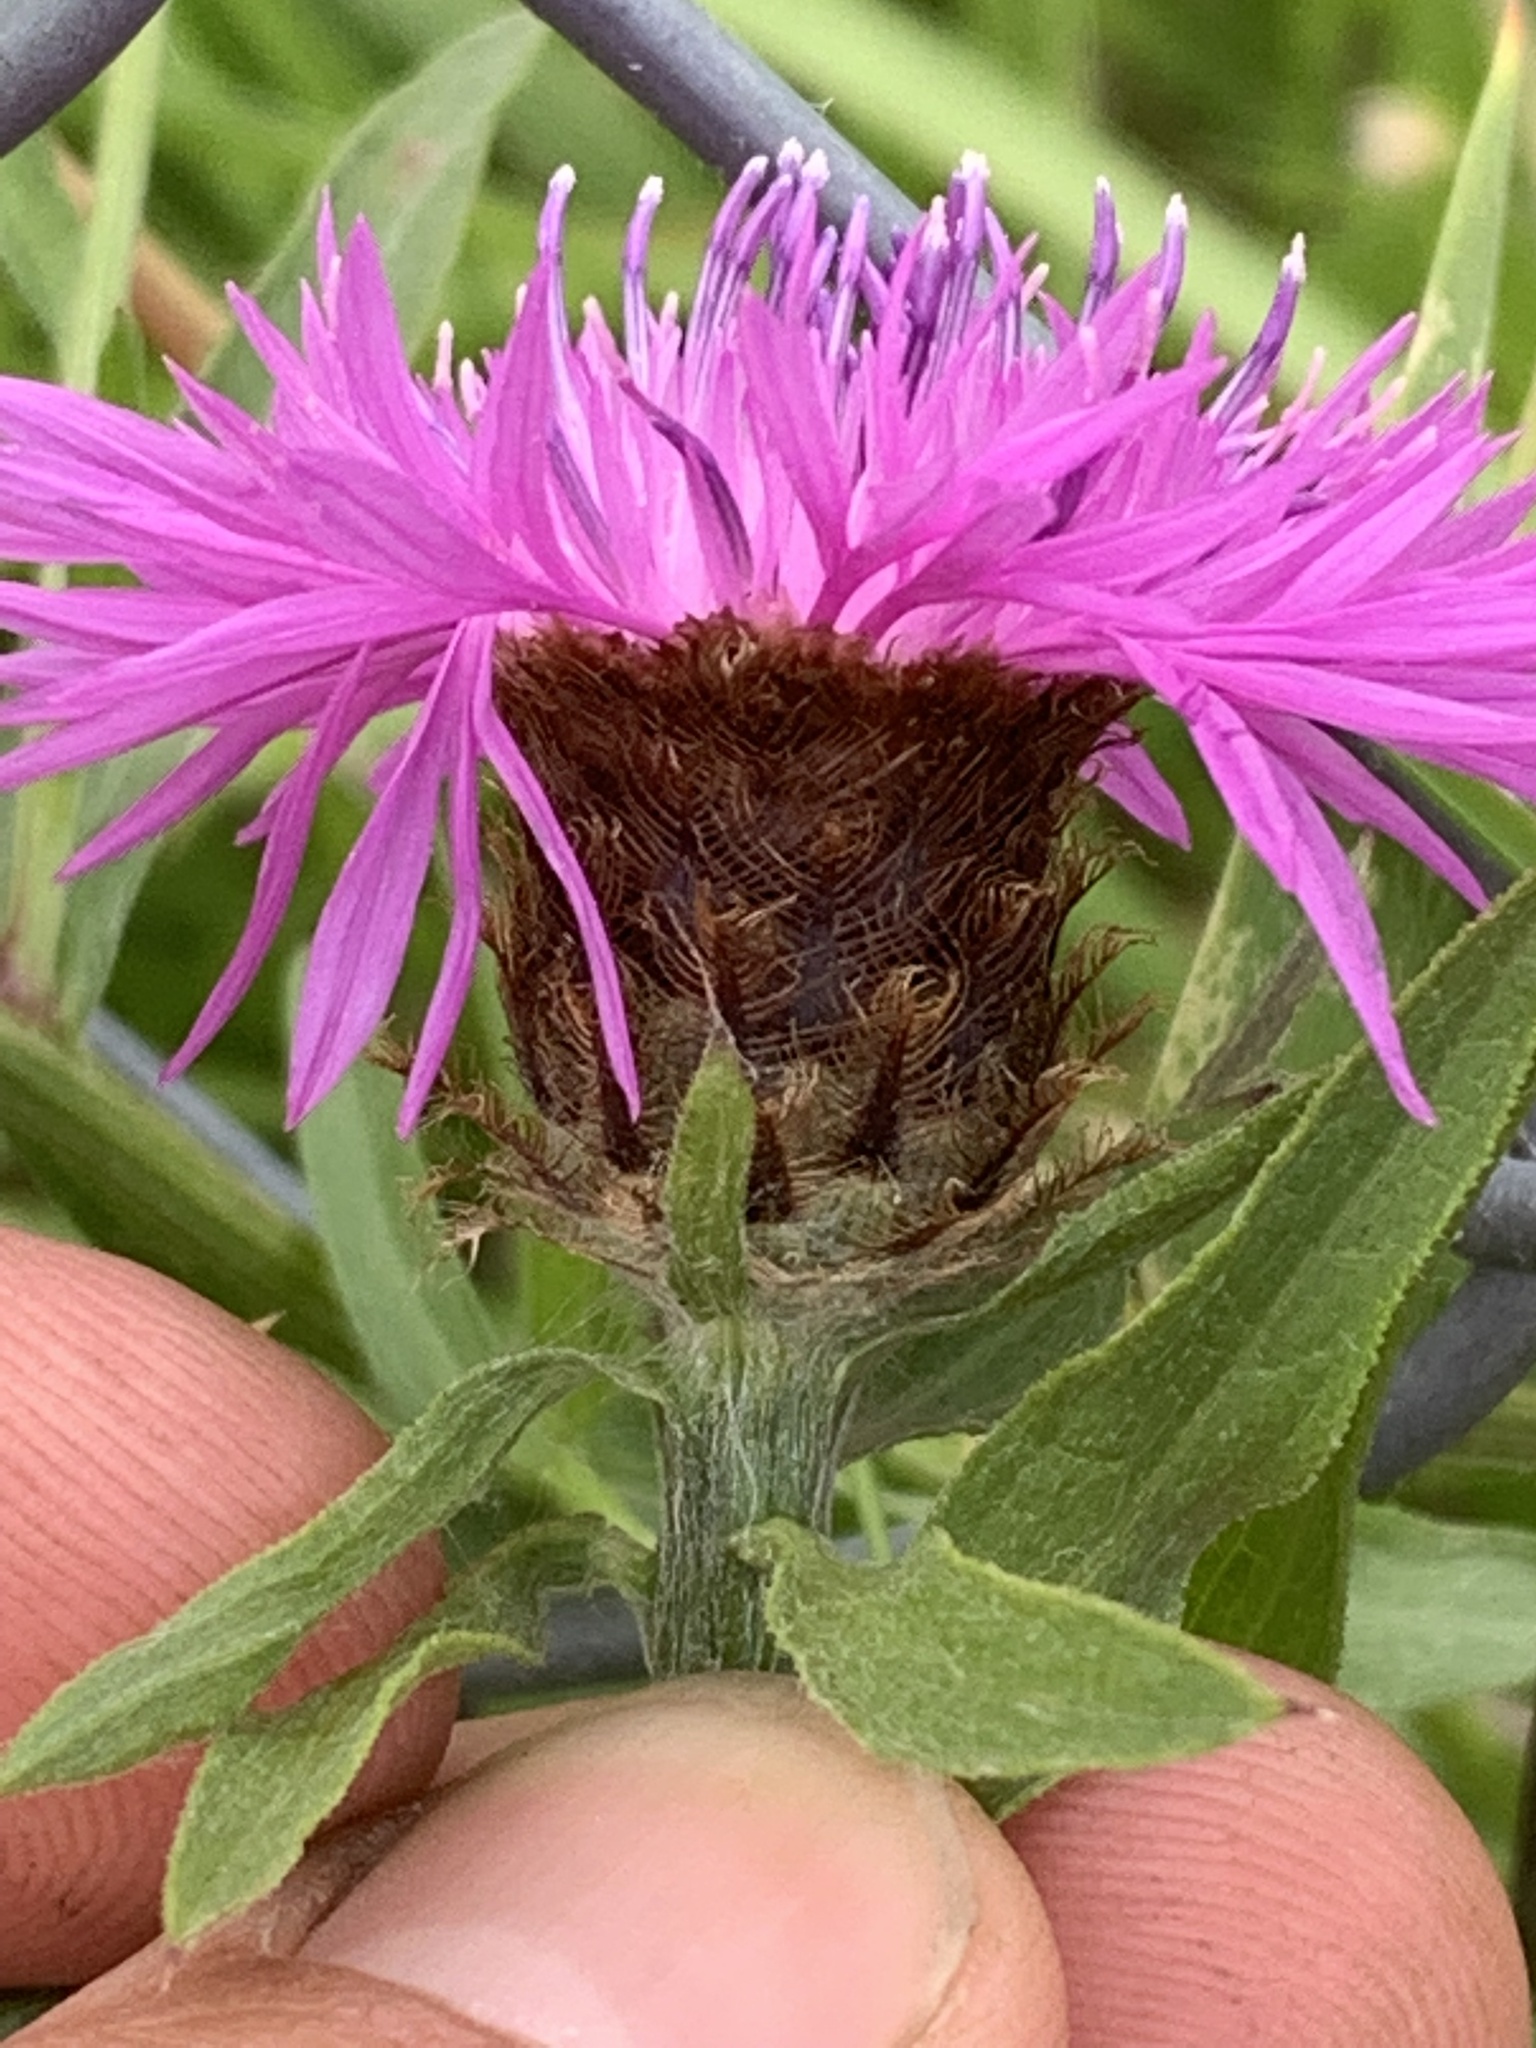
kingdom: Plantae
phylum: Tracheophyta
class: Magnoliopsida
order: Asterales
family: Asteraceae
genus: Centaurea
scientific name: Centaurea gerstlaueri
